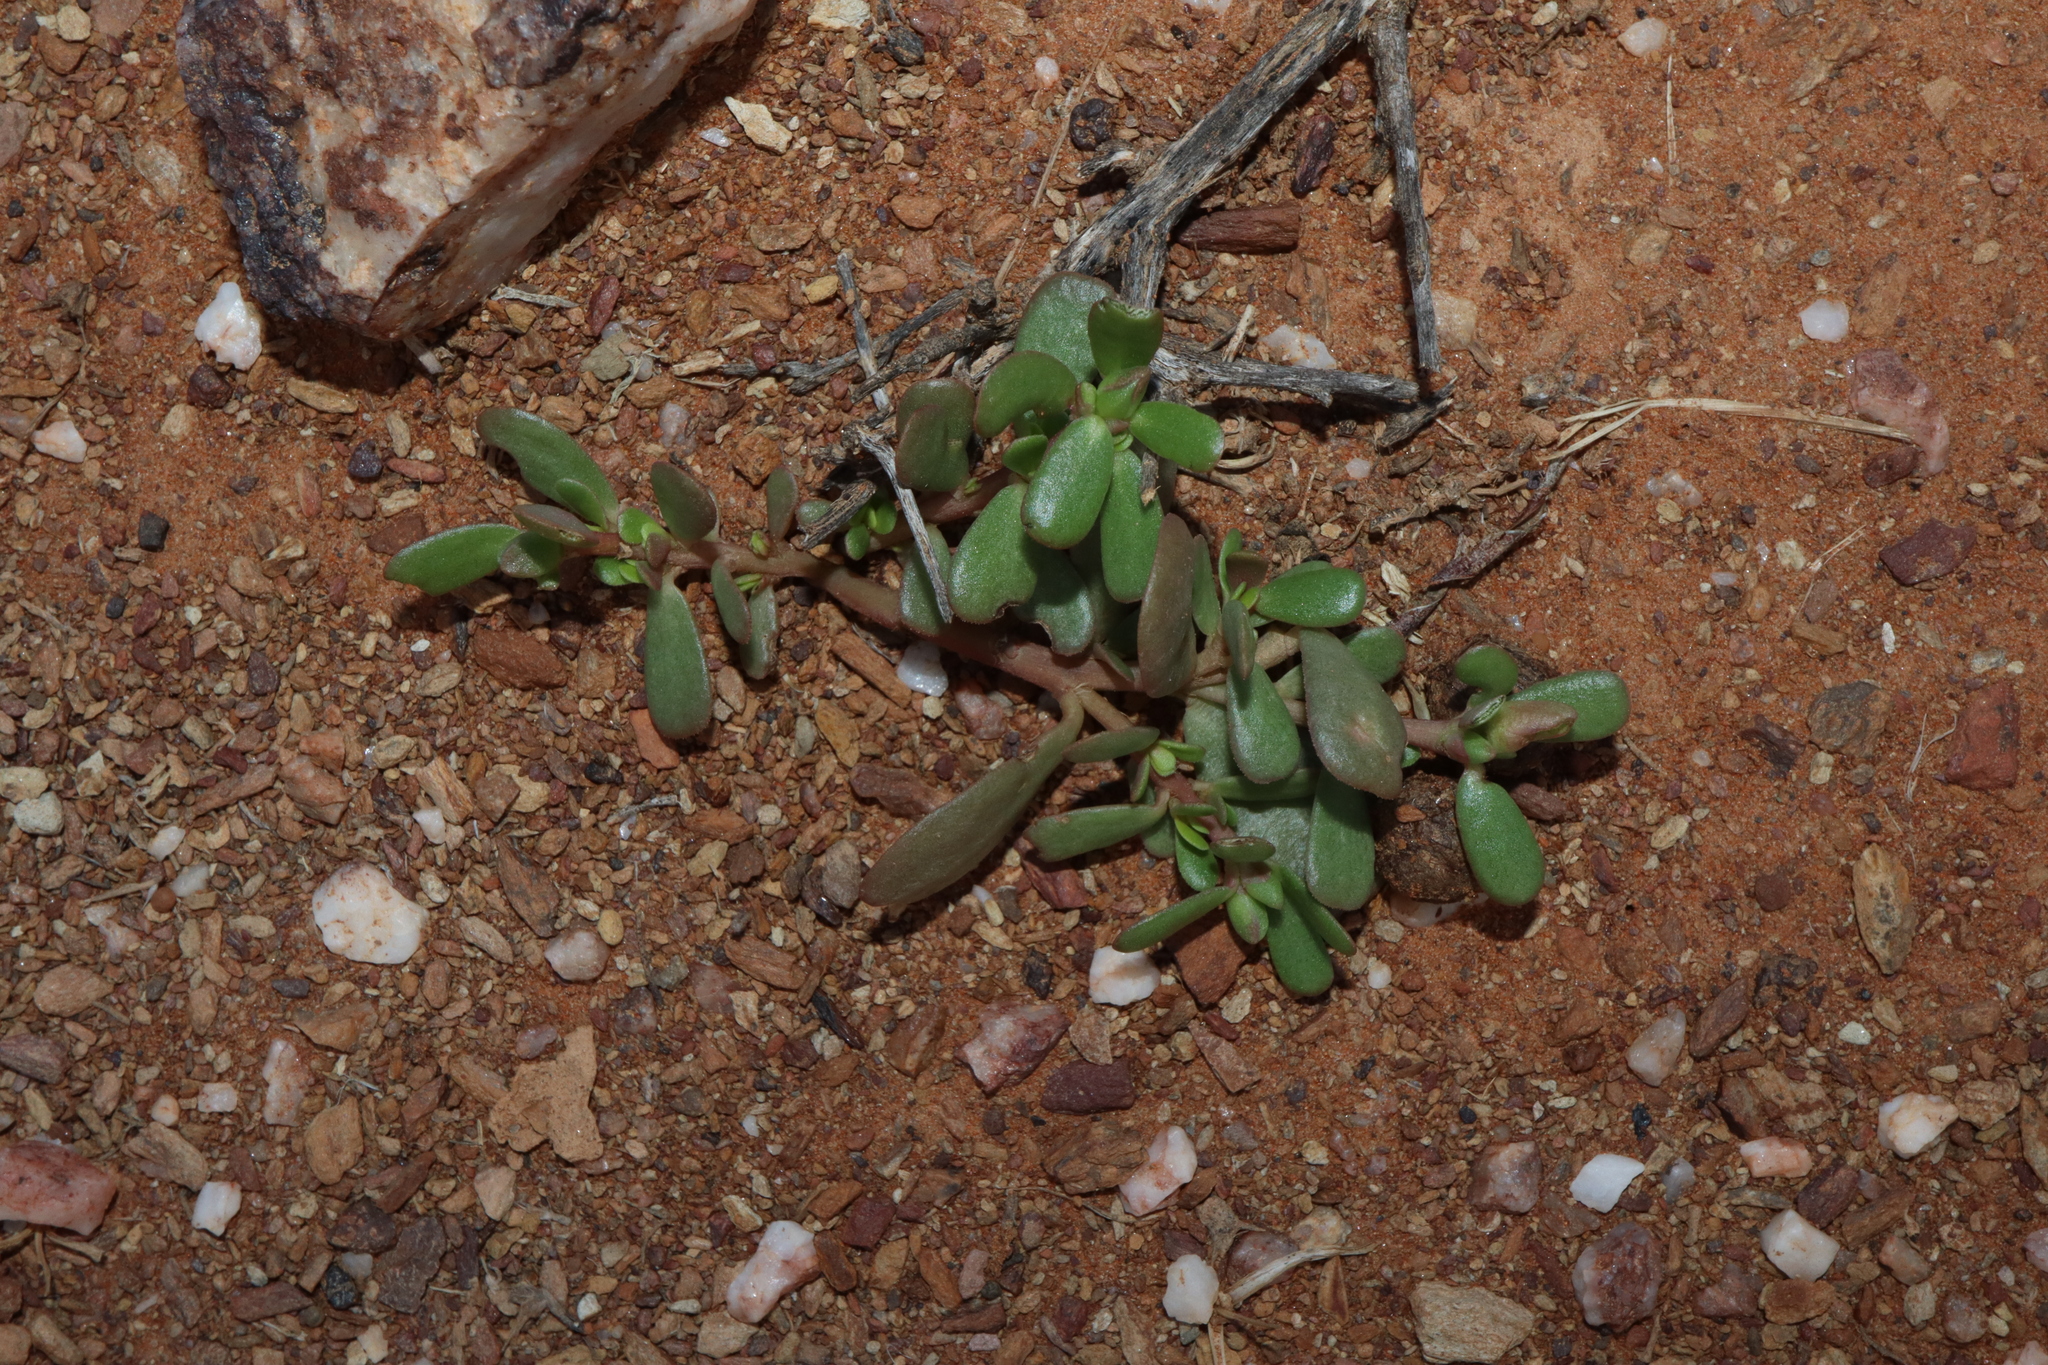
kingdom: Plantae
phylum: Tracheophyta
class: Magnoliopsida
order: Caryophyllales
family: Portulacaceae
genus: Portulaca
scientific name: Portulaca oleracea
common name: Common purslane
